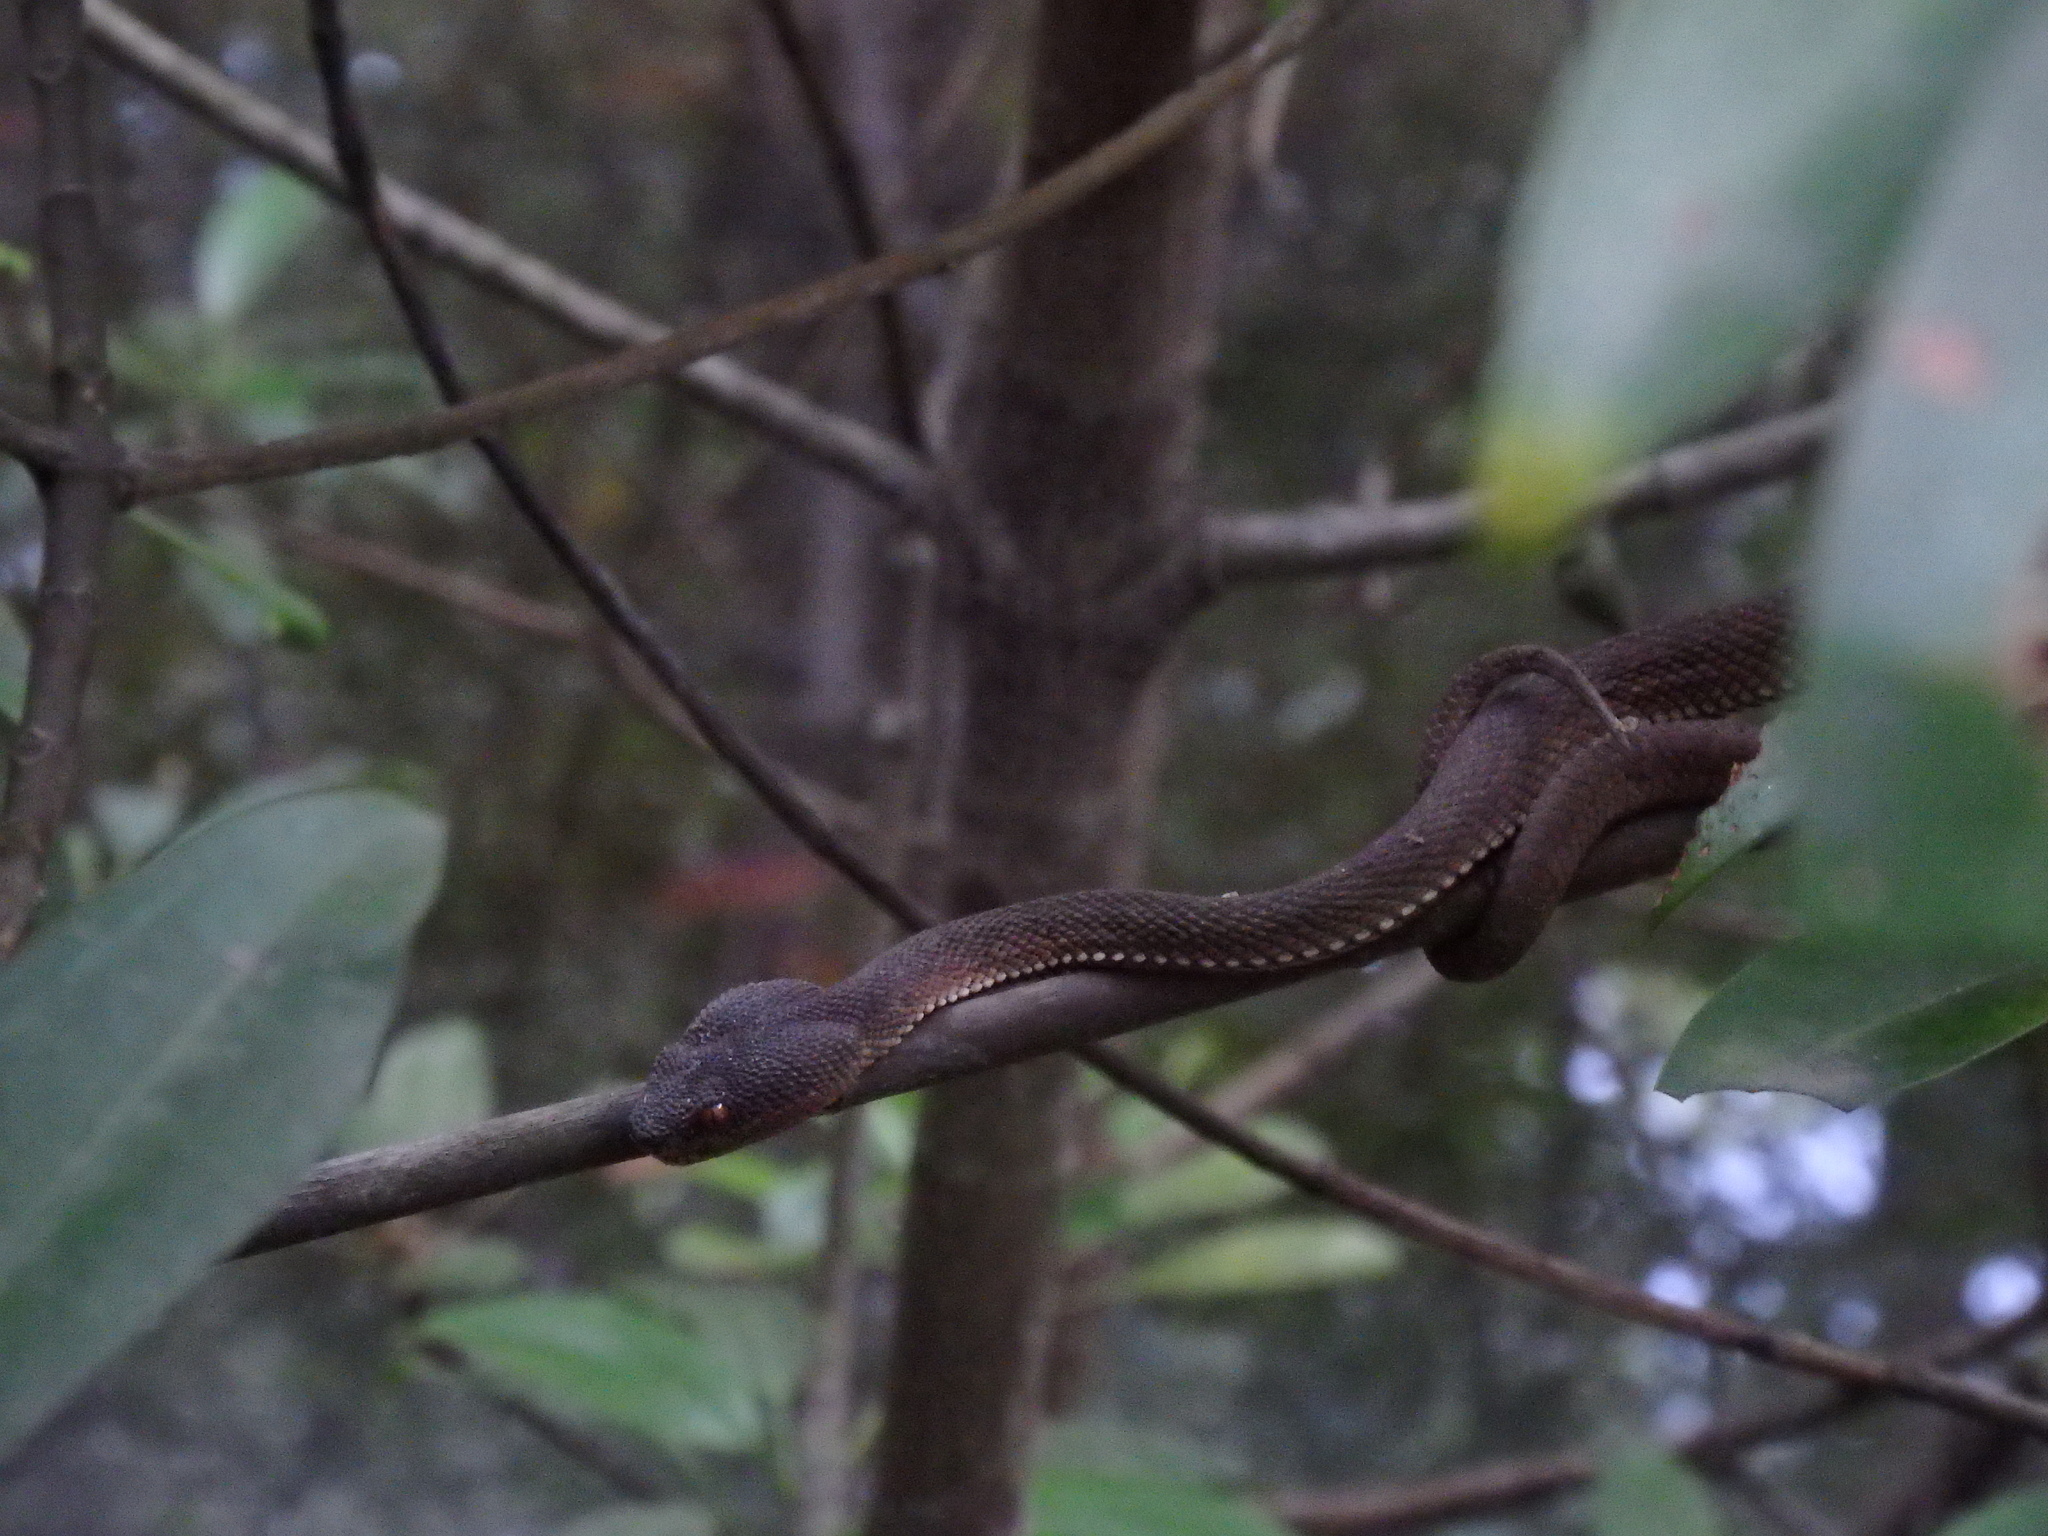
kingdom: Animalia
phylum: Chordata
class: Squamata
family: Viperidae
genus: Trimeresurus
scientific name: Trimeresurus purpureomaculatus
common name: Shore pit viper
